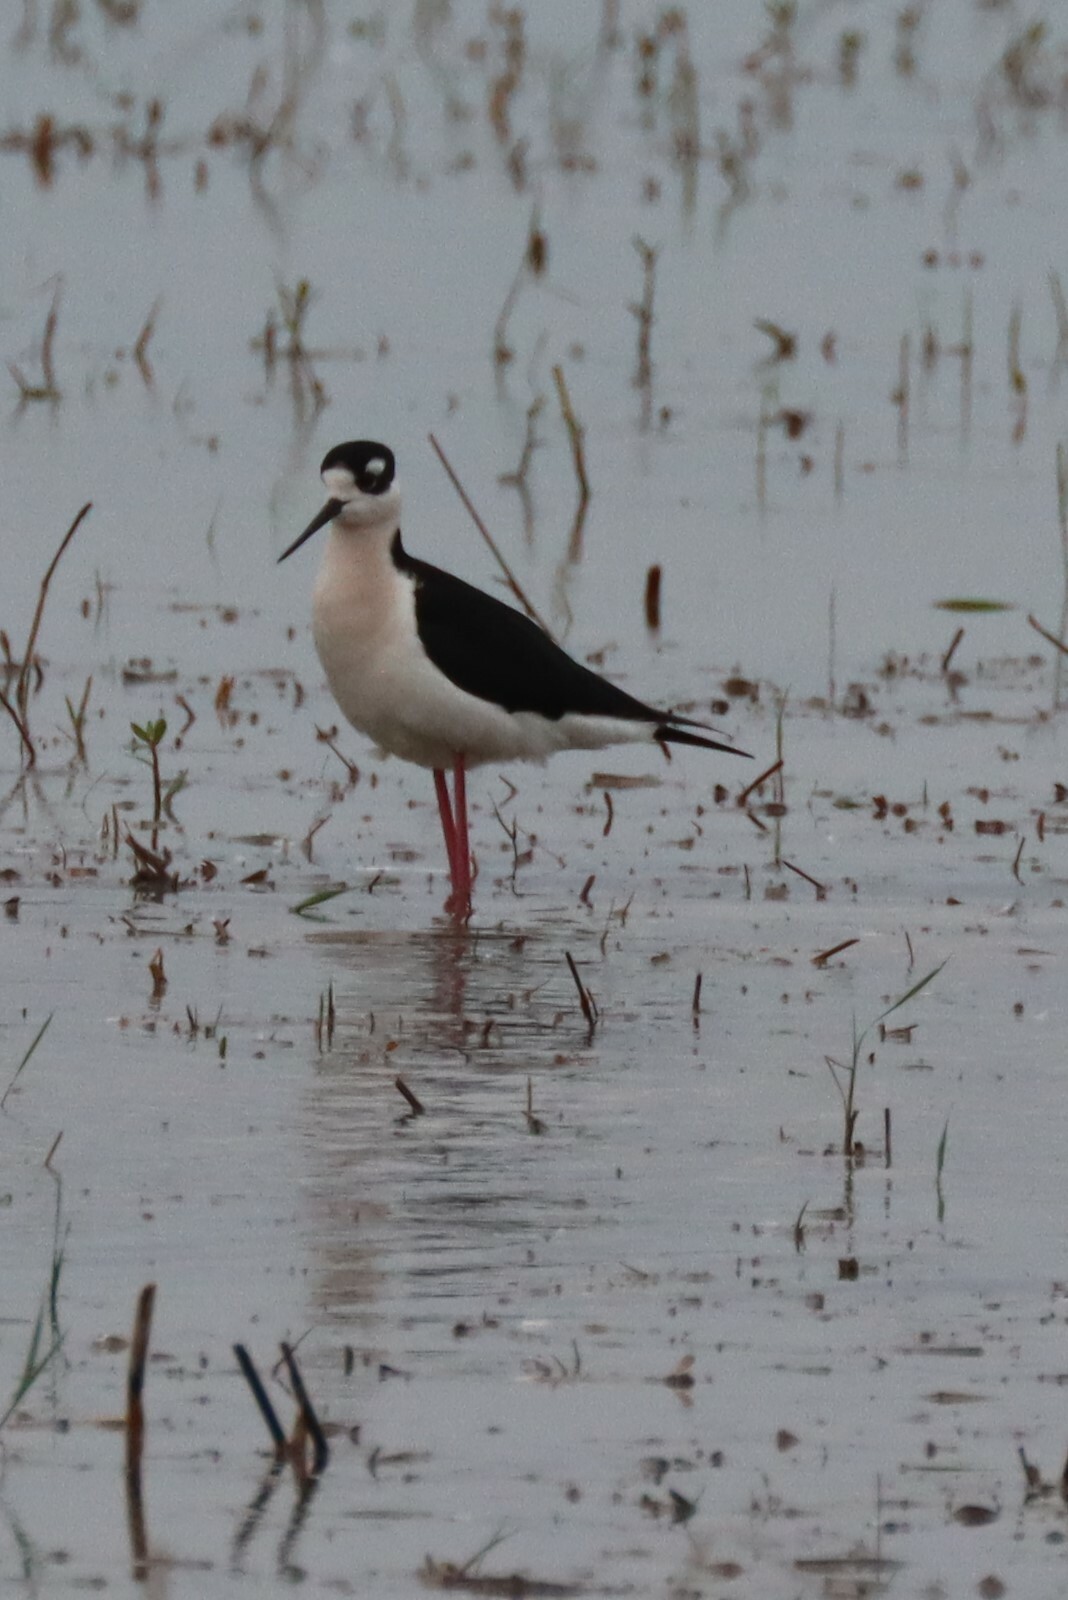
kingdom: Animalia
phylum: Chordata
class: Aves
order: Charadriiformes
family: Recurvirostridae
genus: Himantopus
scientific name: Himantopus mexicanus
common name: Black-necked stilt
